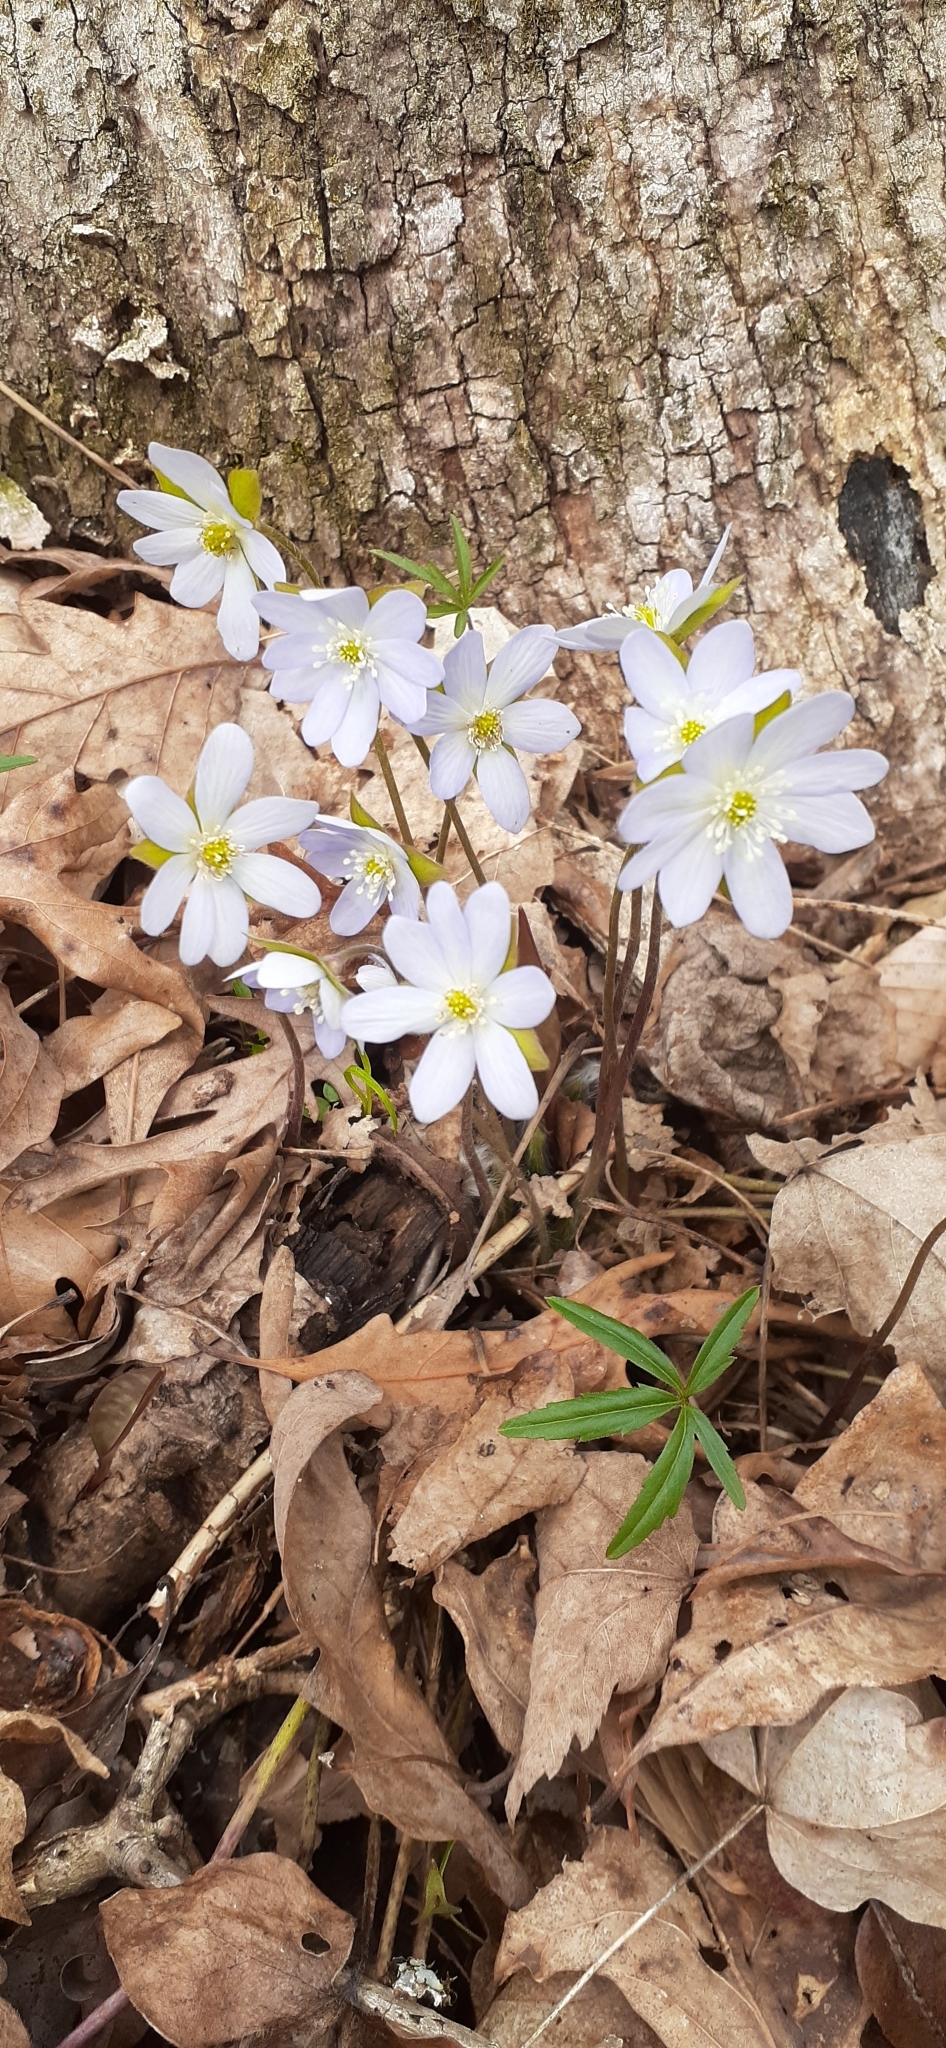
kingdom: Plantae
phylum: Tracheophyta
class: Magnoliopsida
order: Ranunculales
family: Ranunculaceae
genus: Hepatica
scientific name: Hepatica acutiloba
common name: Sharp-lobed hepatica
